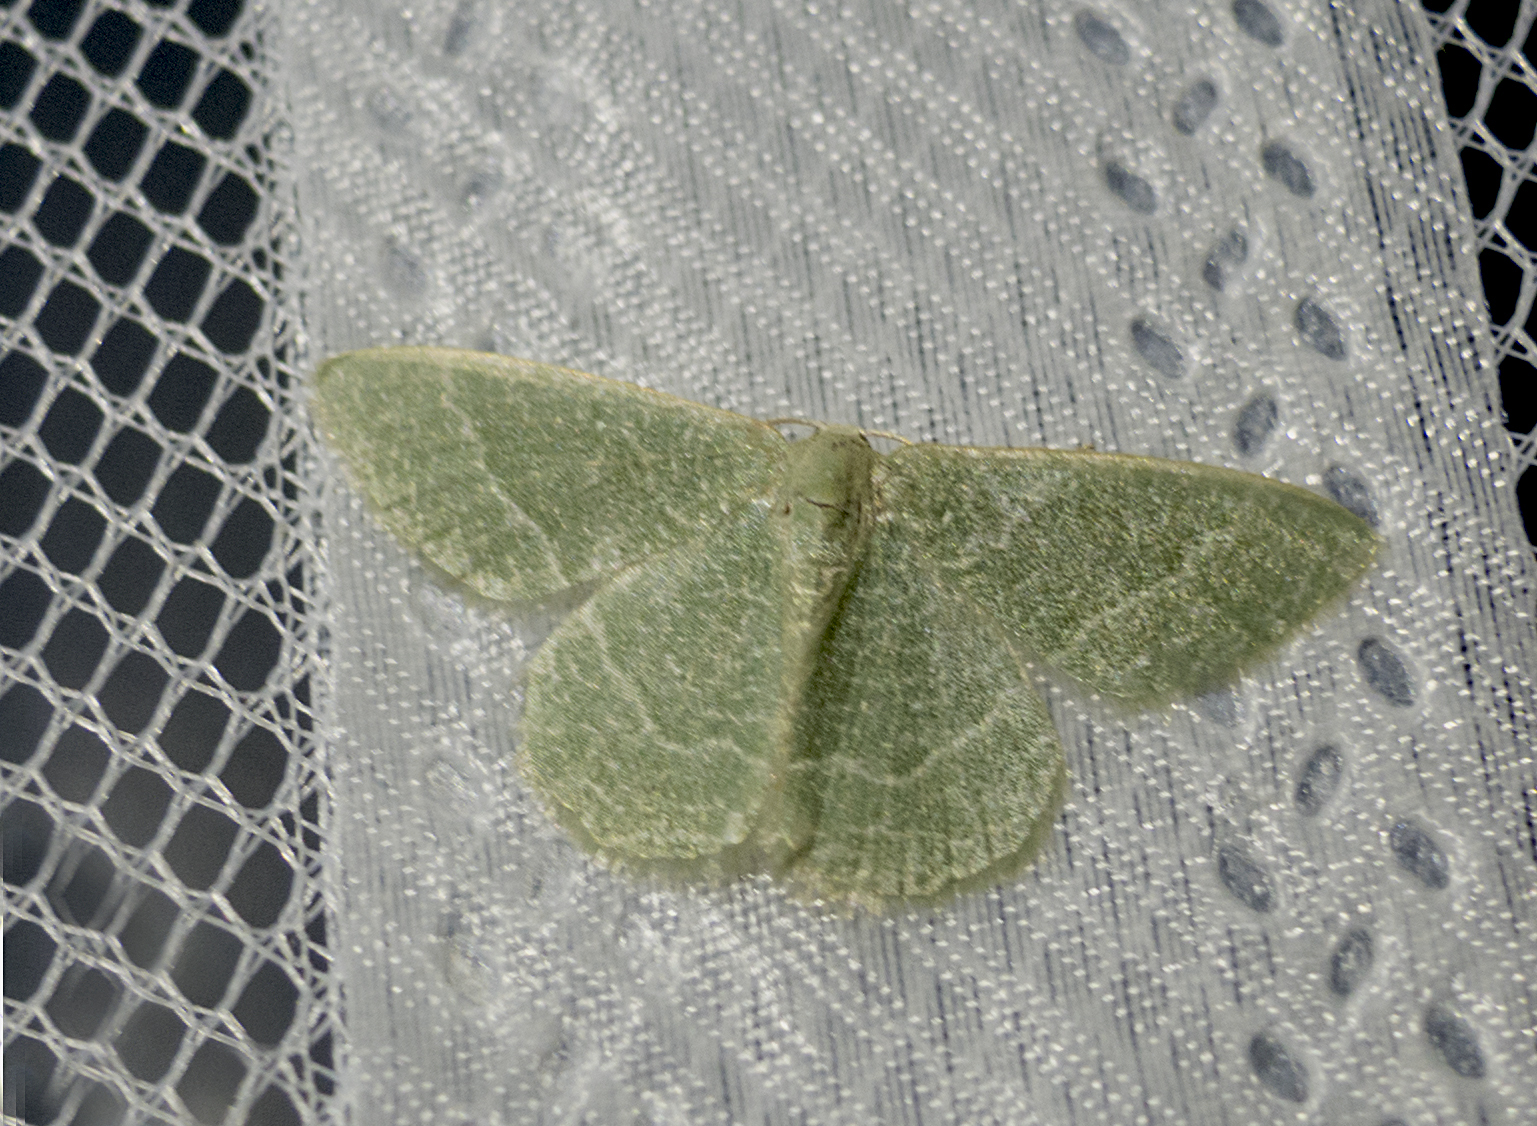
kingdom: Animalia
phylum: Arthropoda
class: Insecta
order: Lepidoptera
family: Geometridae
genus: Chlorissa
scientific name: Chlorissa etruscaria
